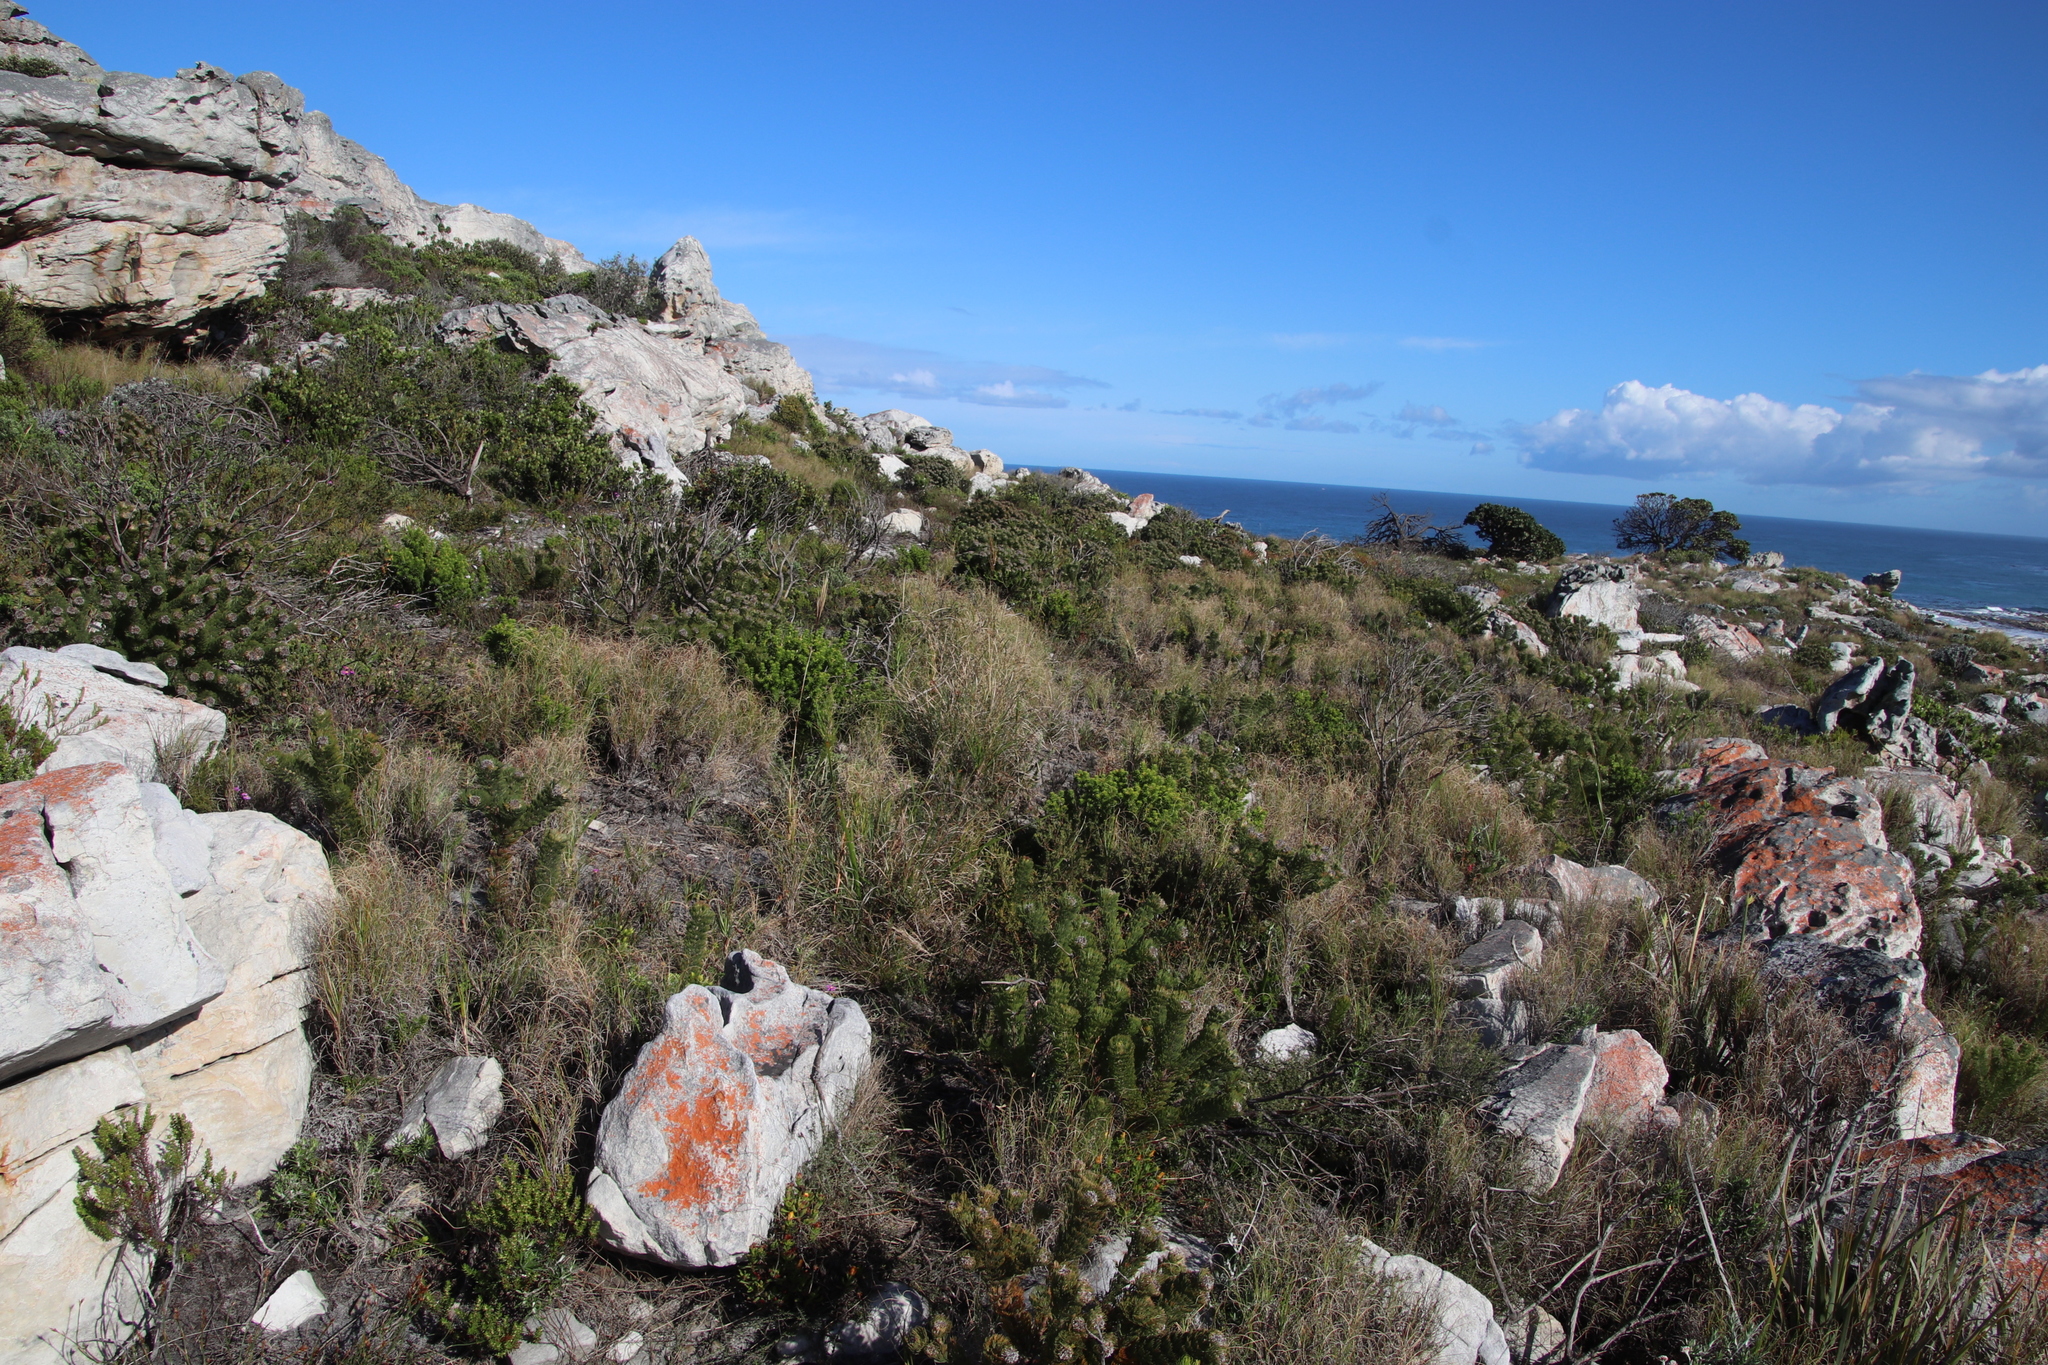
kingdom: Plantae
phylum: Tracheophyta
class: Magnoliopsida
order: Proteales
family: Proteaceae
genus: Serruria
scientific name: Serruria villosa
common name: Golden spiderhead
